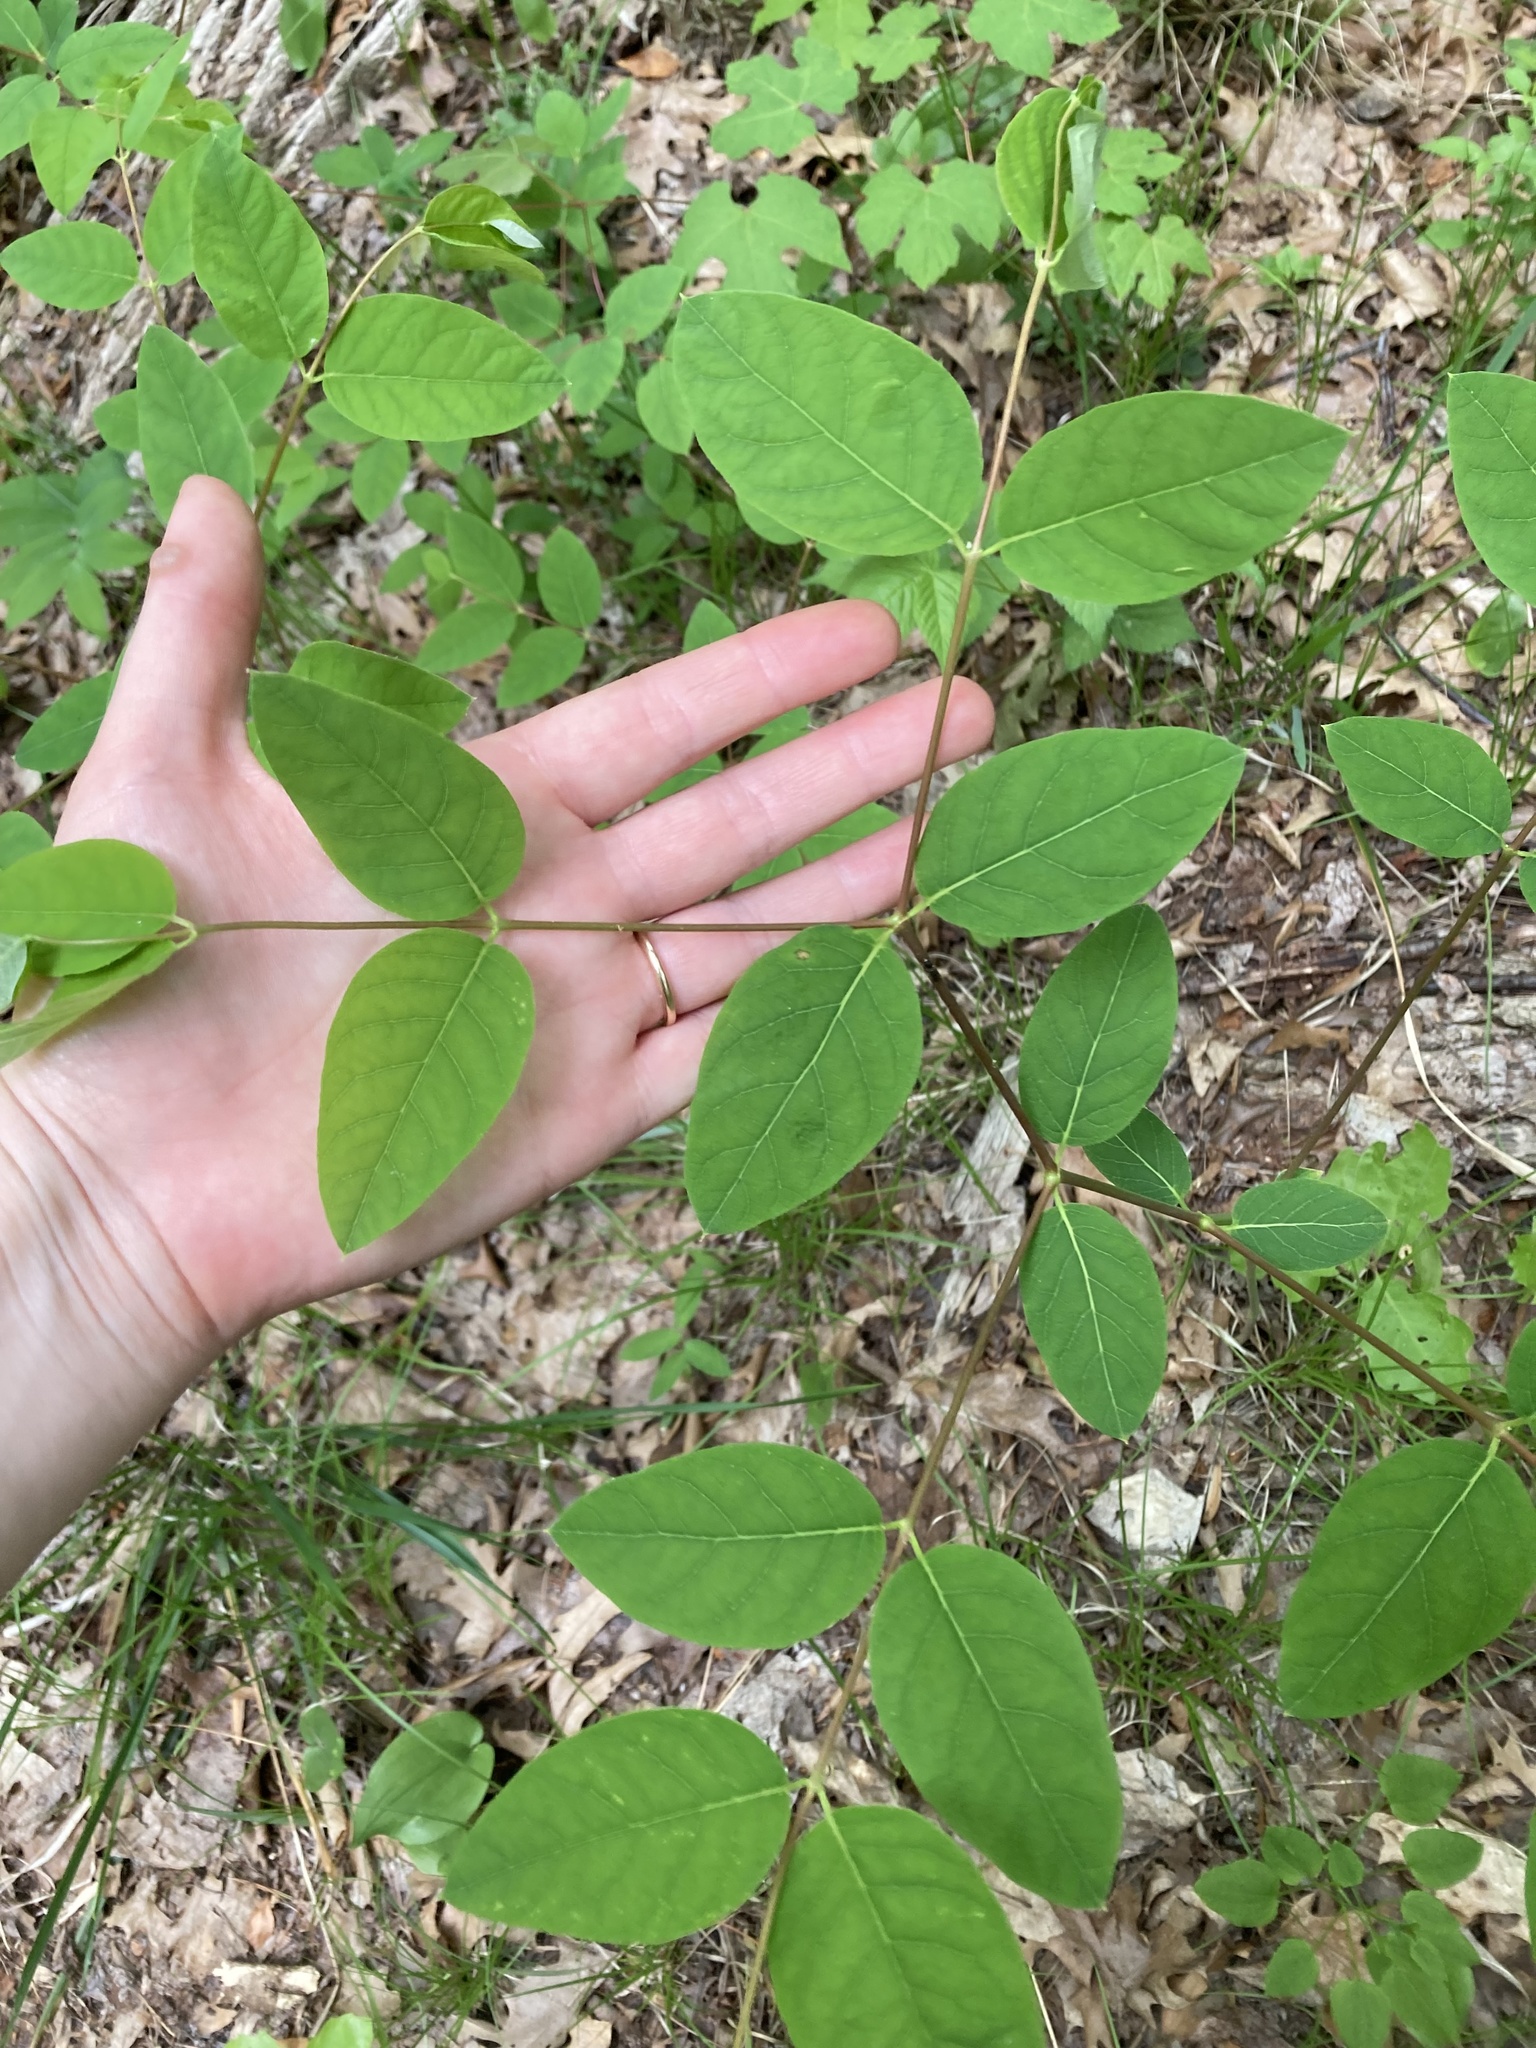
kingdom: Plantae
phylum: Tracheophyta
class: Magnoliopsida
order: Gentianales
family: Apocynaceae
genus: Apocynum
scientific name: Apocynum androsaemifolium
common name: Spreading dogbane
